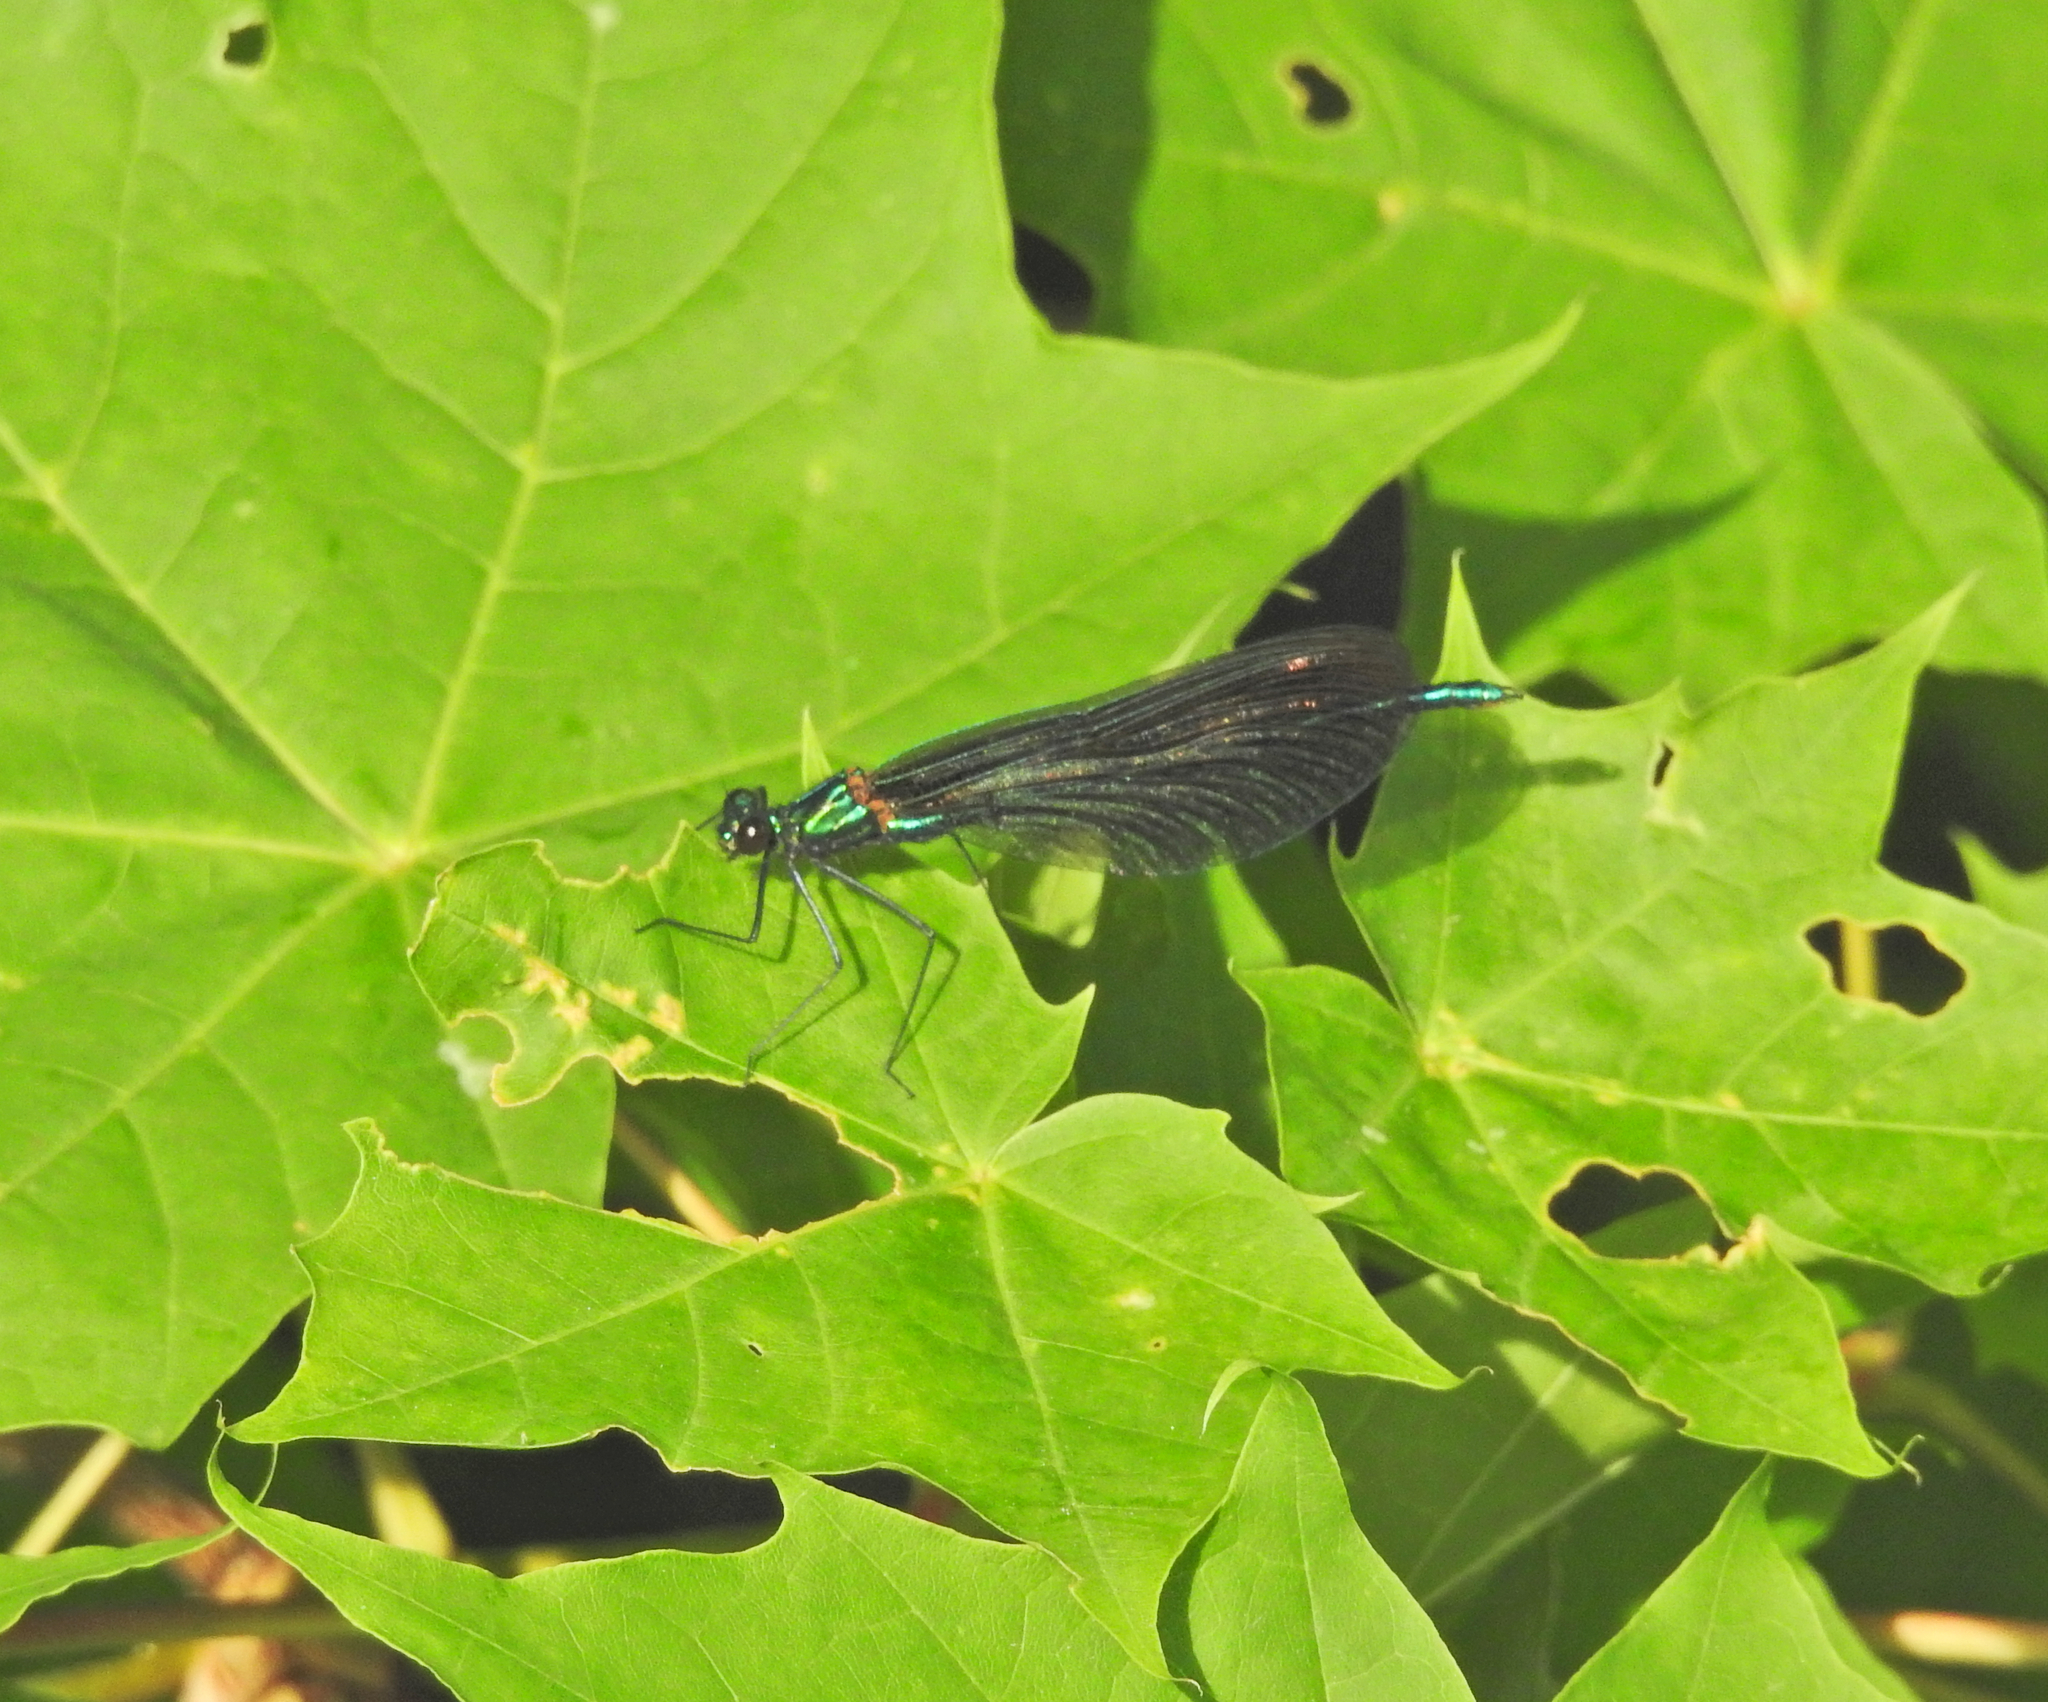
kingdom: Animalia
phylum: Arthropoda
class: Insecta
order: Odonata
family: Calopterygidae
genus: Calopteryx
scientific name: Calopteryx virgo
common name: Beautiful demoiselle
